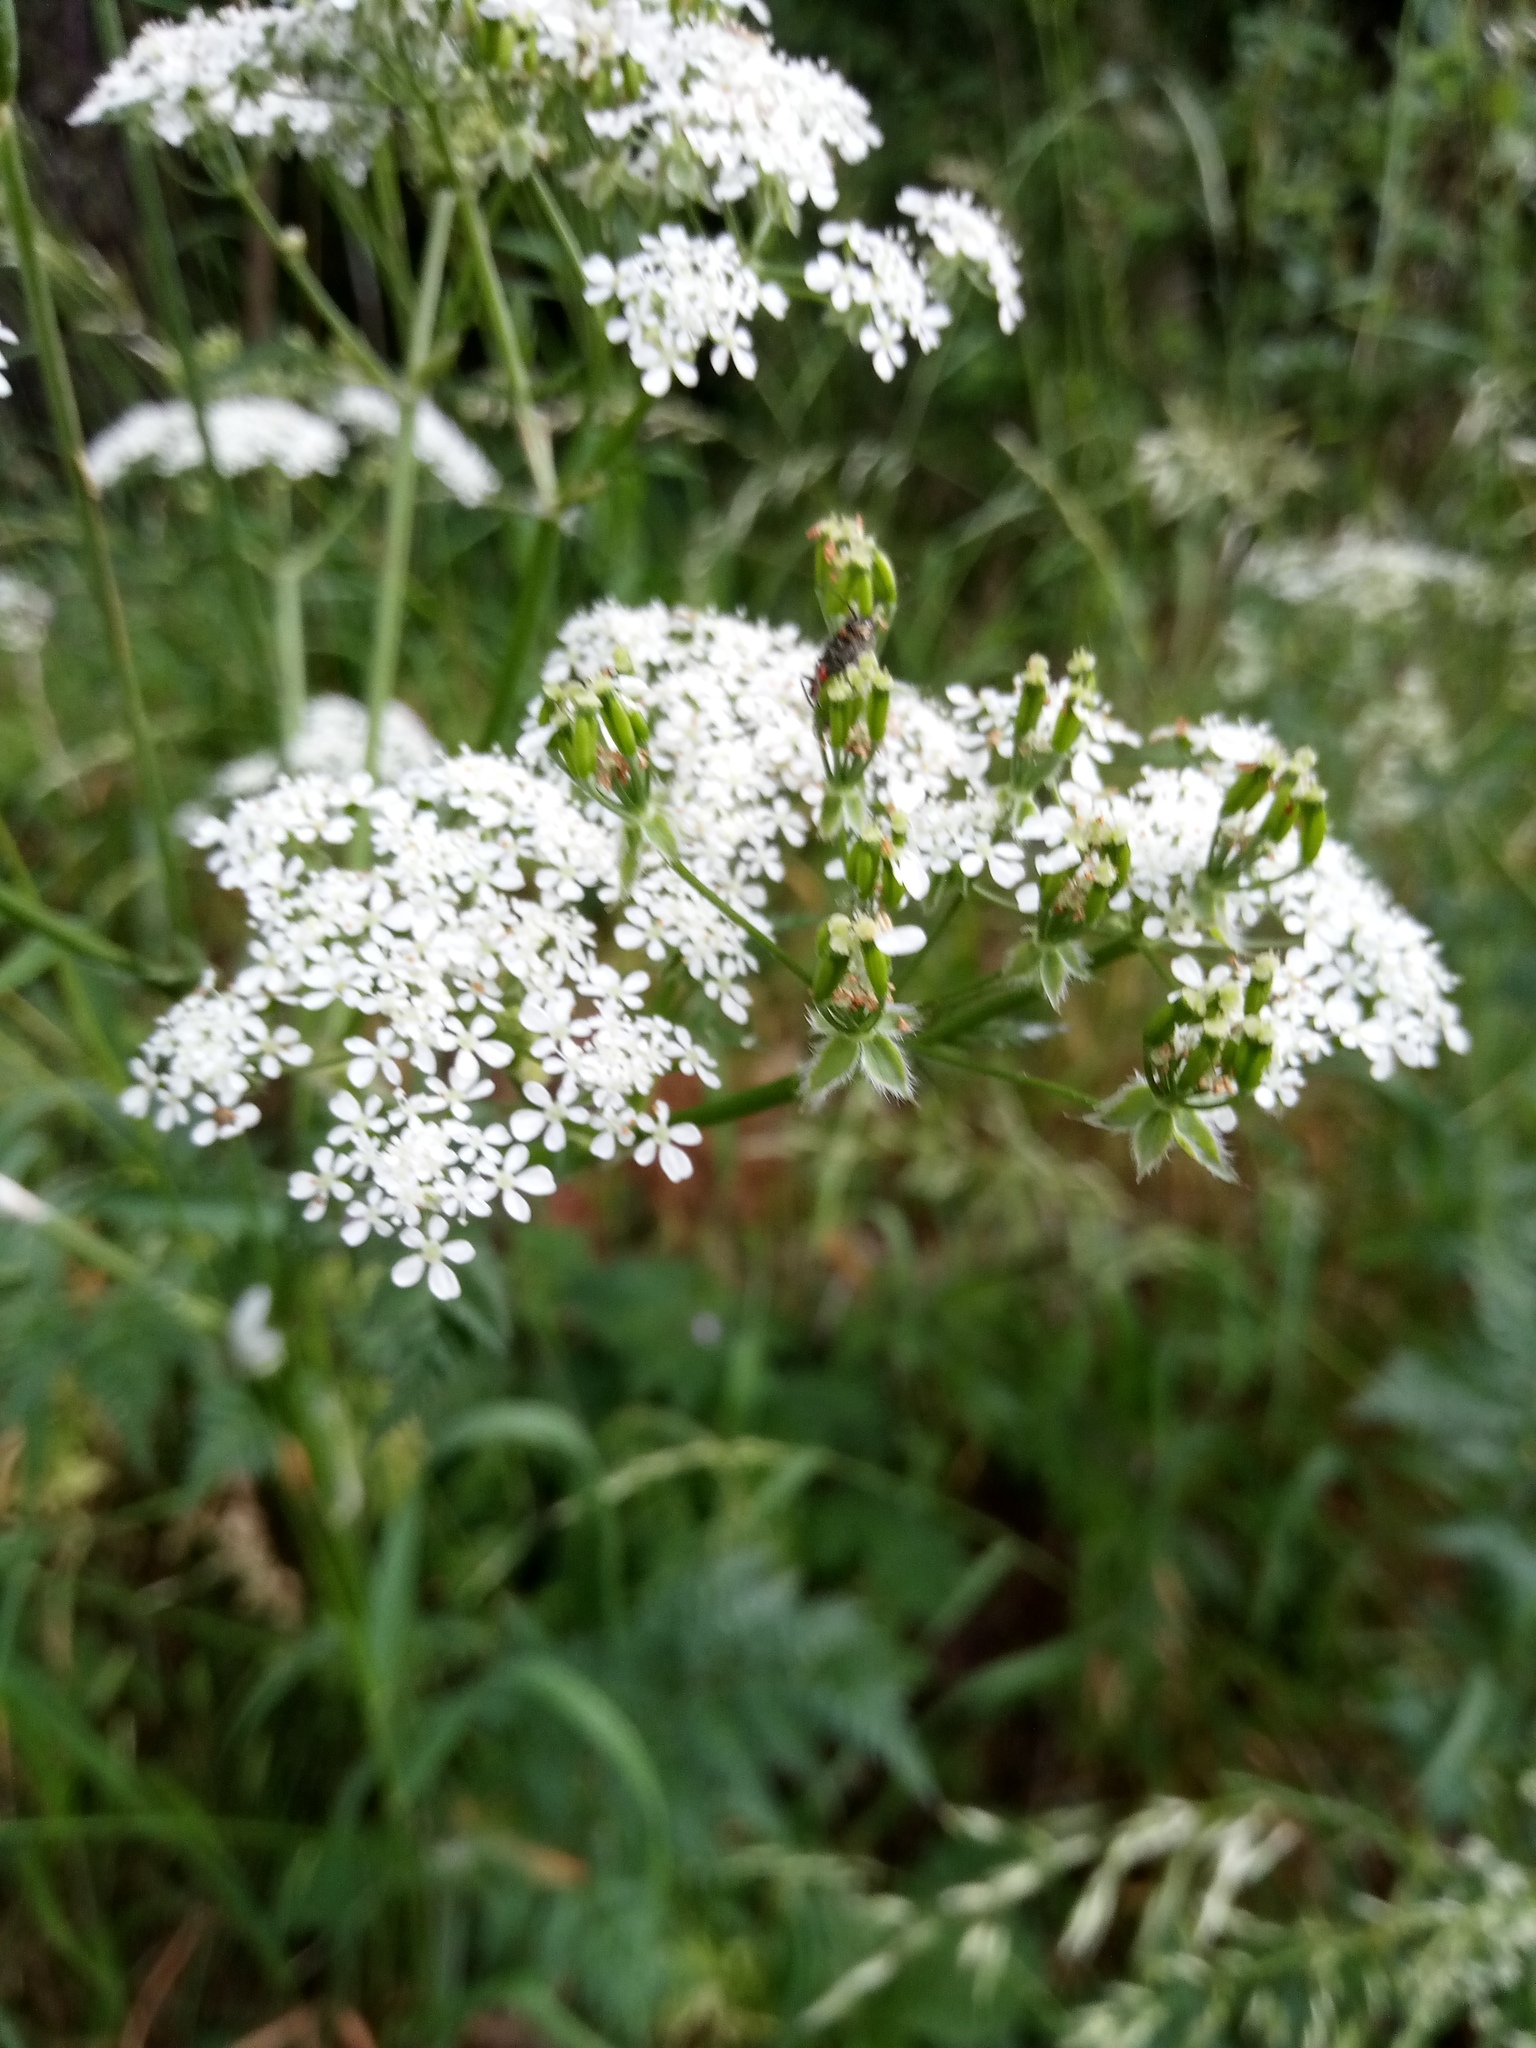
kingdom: Plantae
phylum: Tracheophyta
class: Magnoliopsida
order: Apiales
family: Apiaceae
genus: Anthriscus
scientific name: Anthriscus sylvestris
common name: Cow parsley
